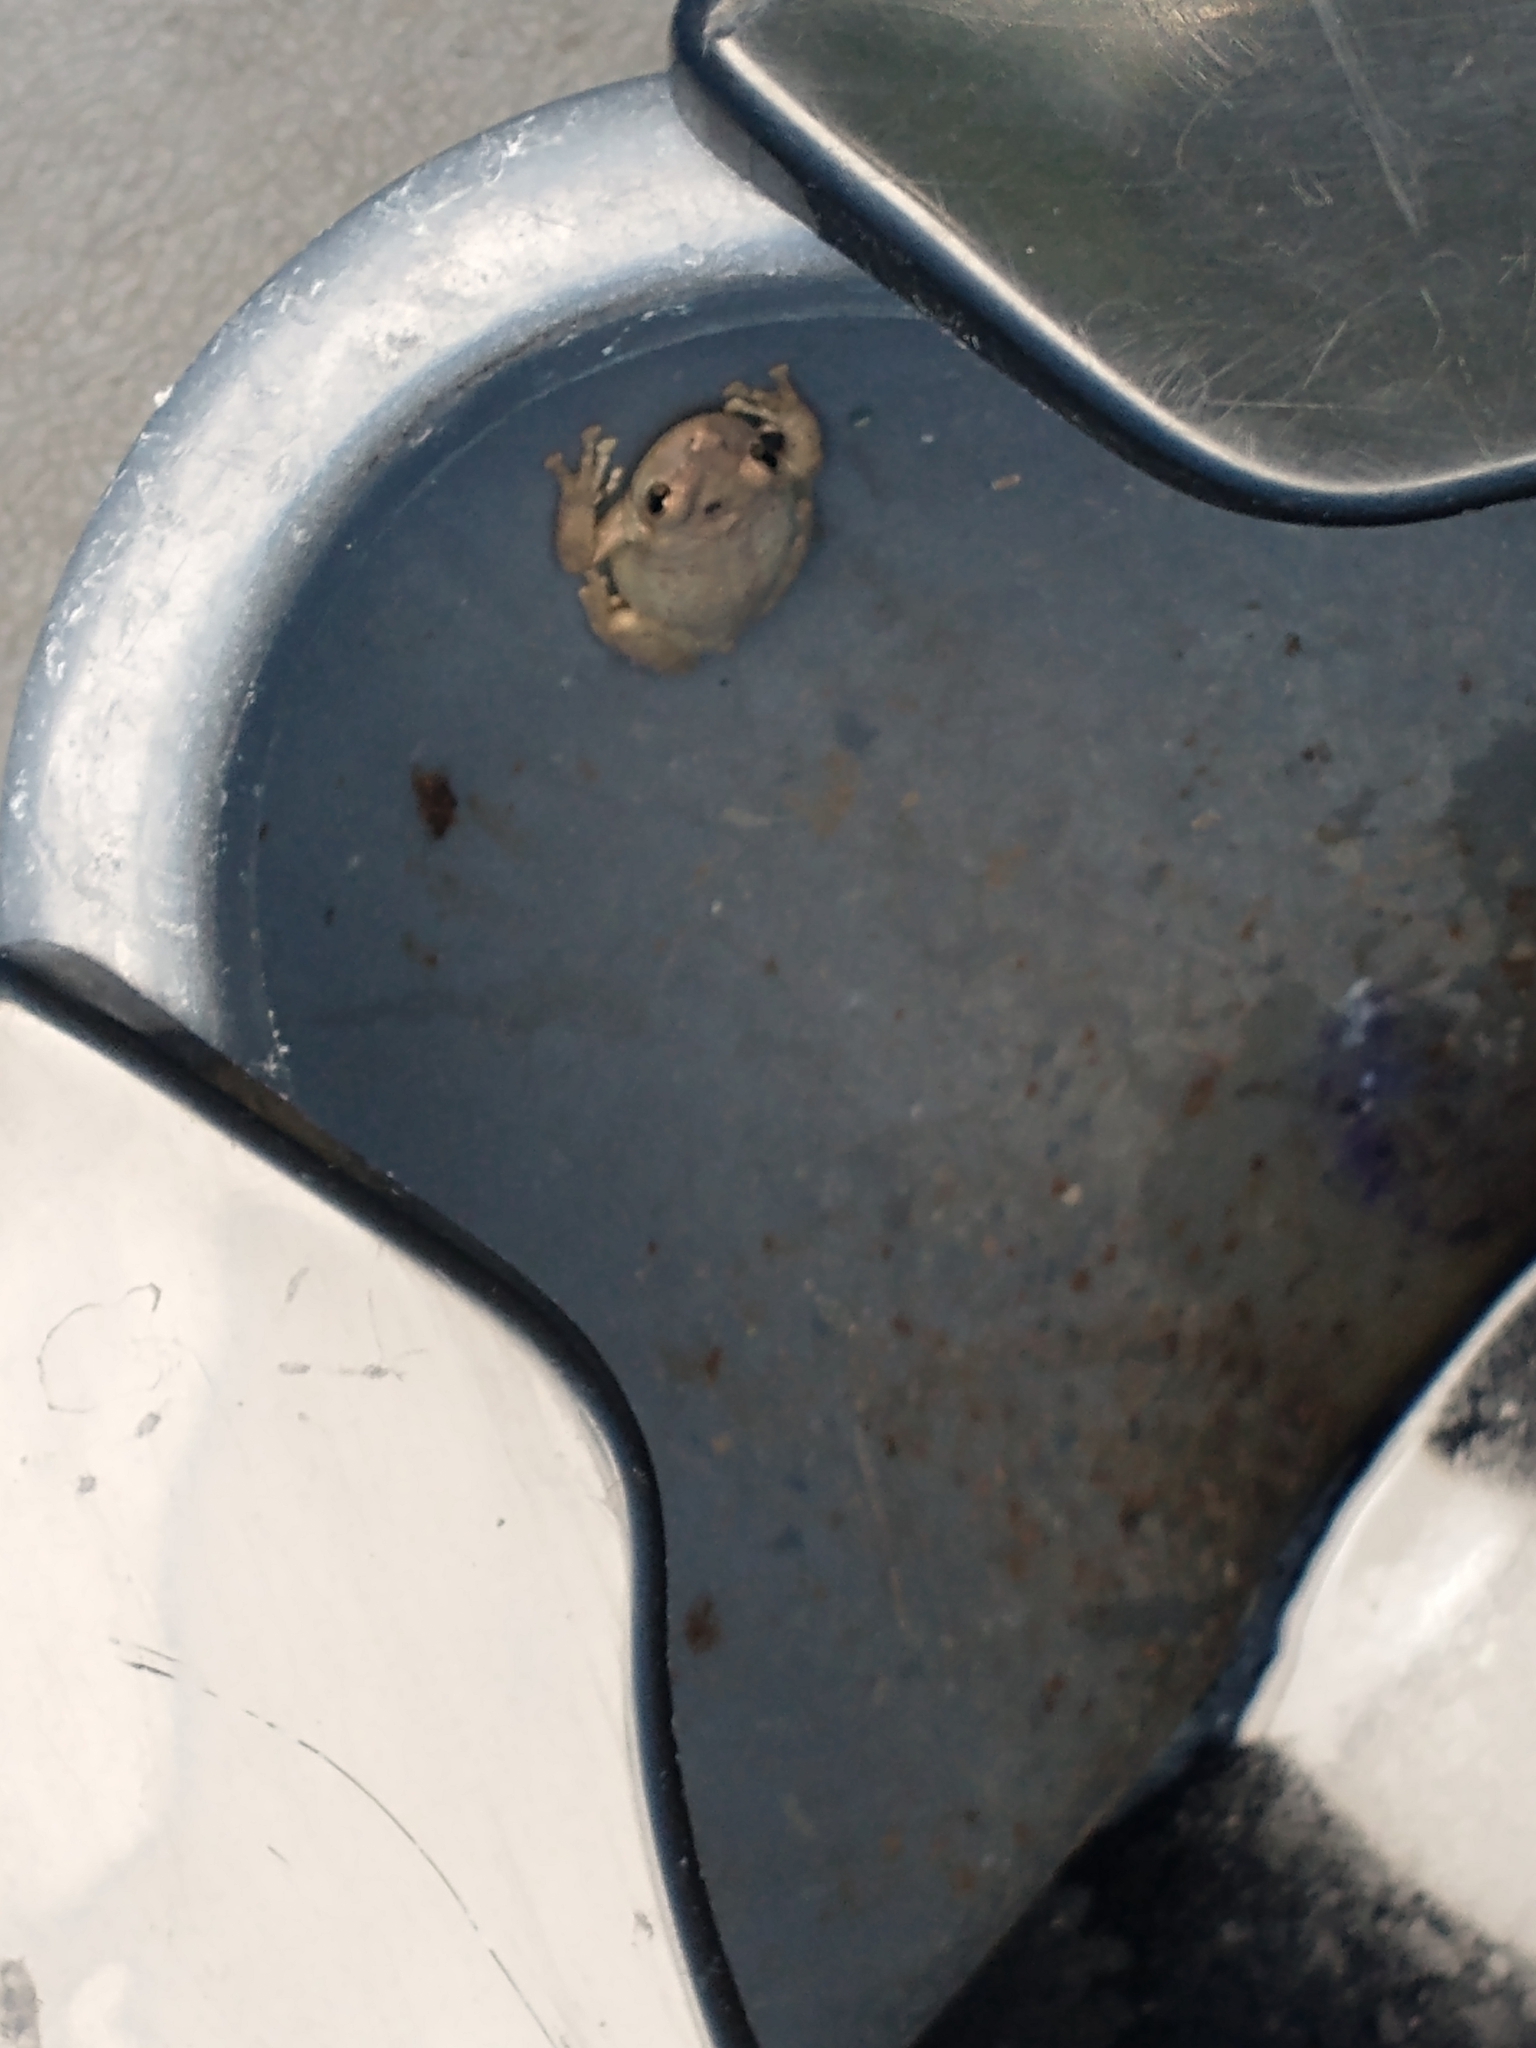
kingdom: Animalia
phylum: Chordata
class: Amphibia
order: Anura
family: Hylidae
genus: Osteopilus
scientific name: Osteopilus septentrionalis
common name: Cuban treefrog
